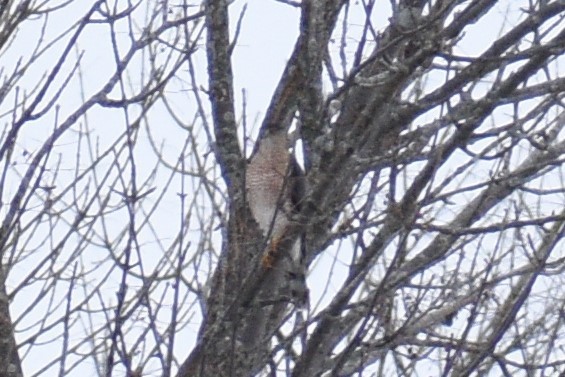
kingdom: Animalia
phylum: Chordata
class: Aves
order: Accipitriformes
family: Accipitridae
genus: Accipiter
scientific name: Accipiter cooperii
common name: Cooper's hawk
